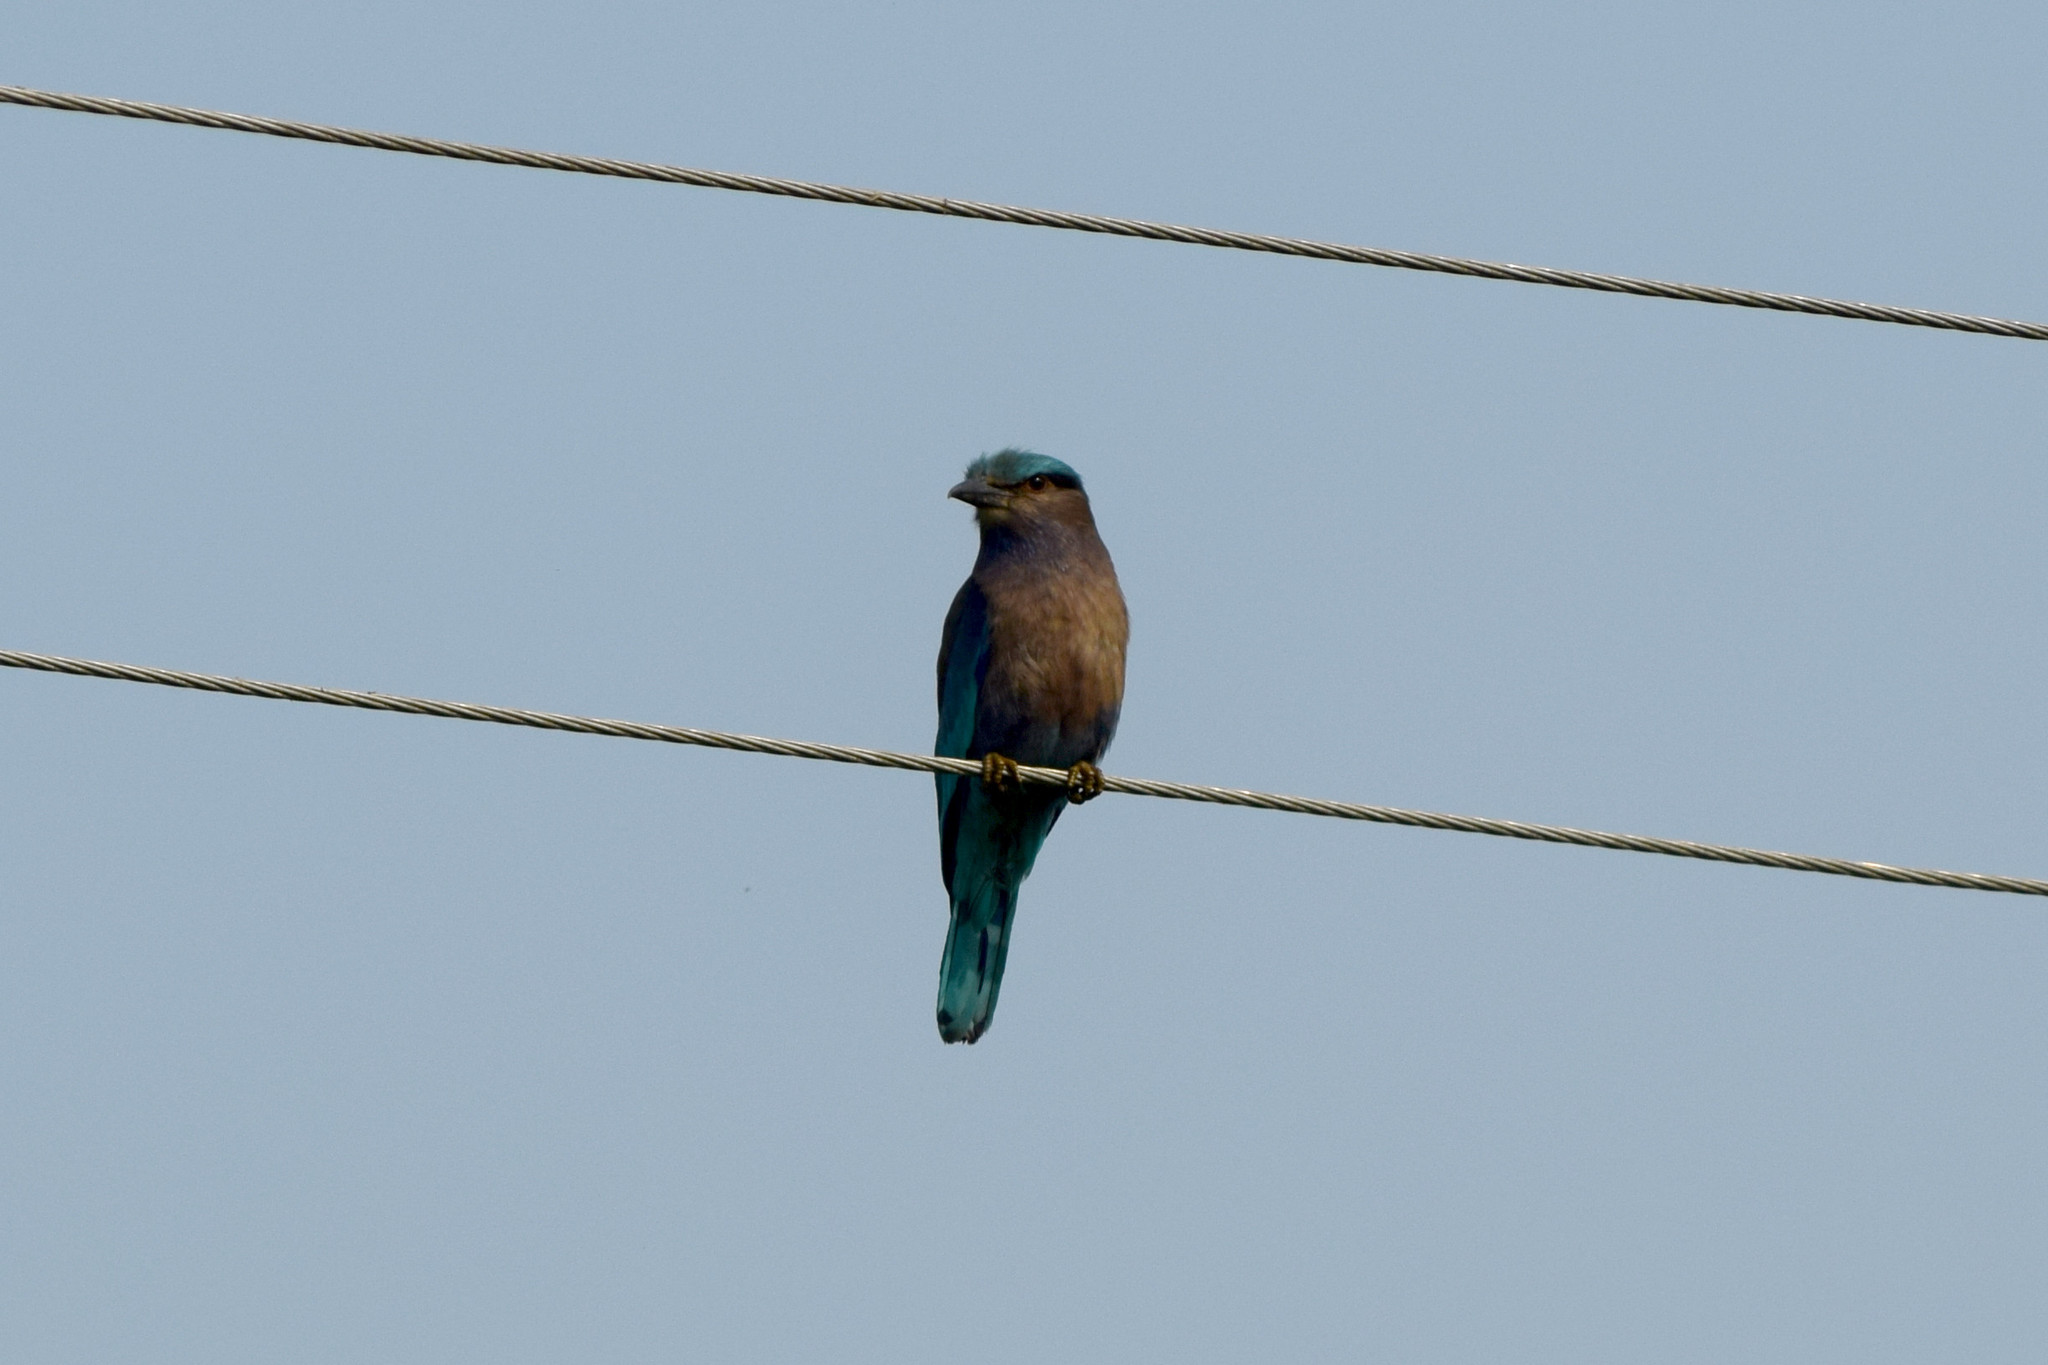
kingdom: Animalia
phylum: Chordata
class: Aves
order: Coraciiformes
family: Coraciidae
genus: Coracias
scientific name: Coracias affinis
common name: Indochinese roller
